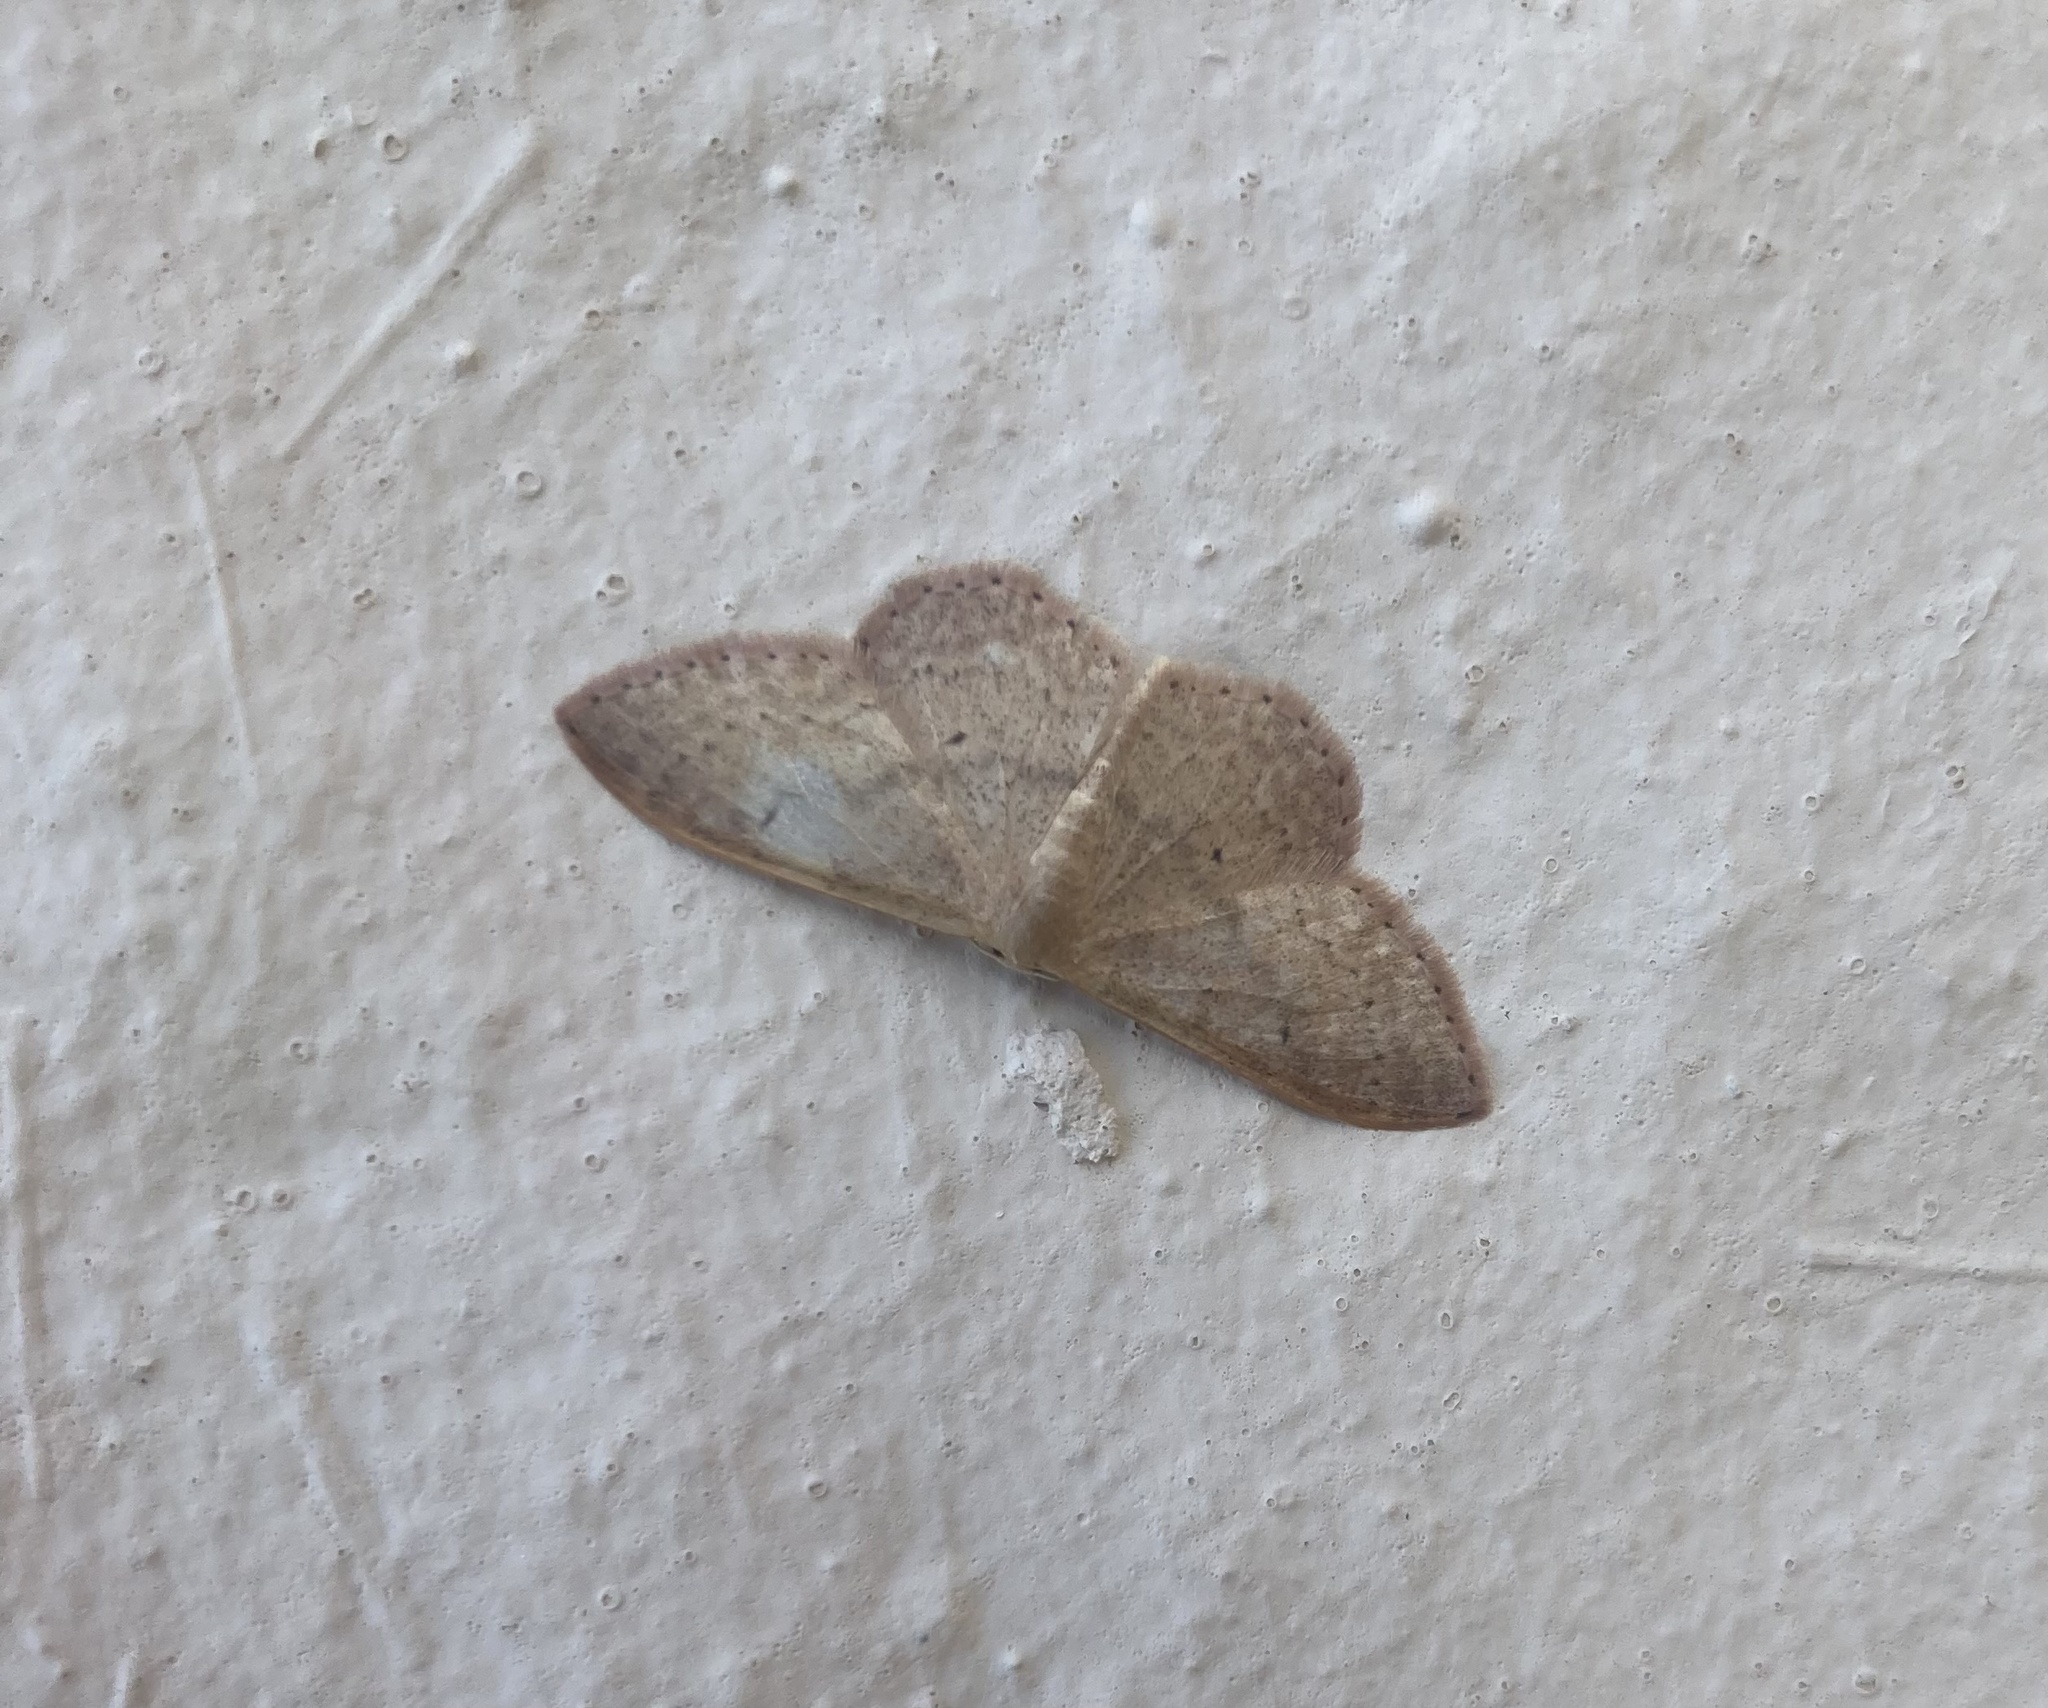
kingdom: Animalia
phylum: Arthropoda
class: Insecta
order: Lepidoptera
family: Geometridae
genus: Idaea
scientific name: Idaea eugeniata
